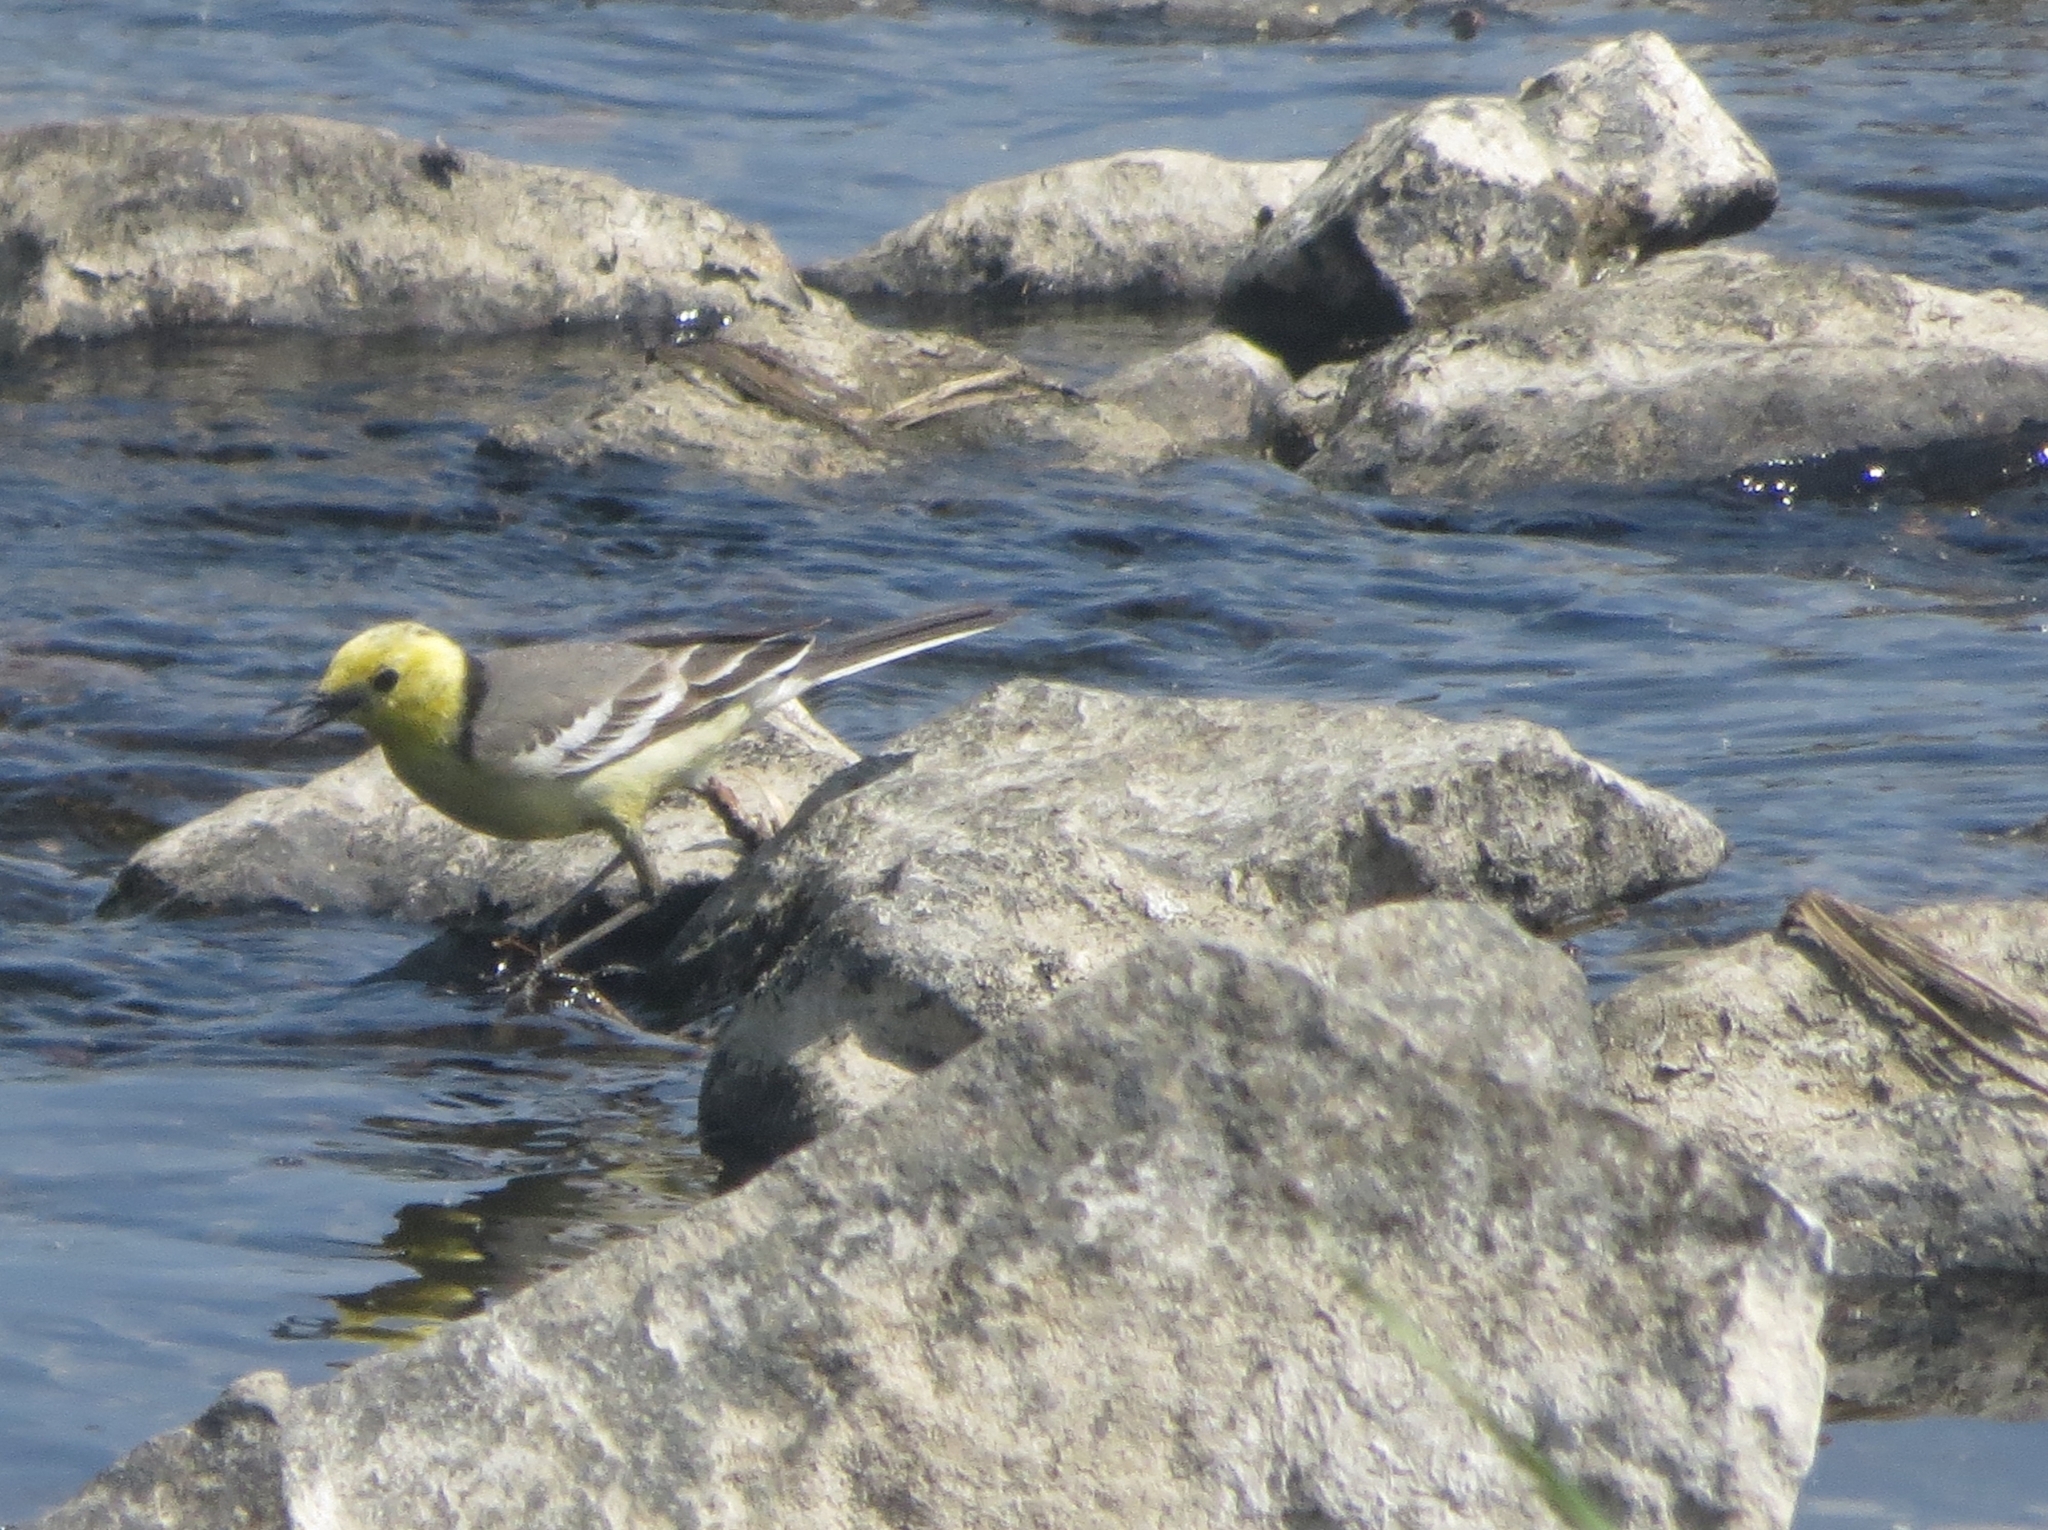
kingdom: Animalia
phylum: Chordata
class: Aves
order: Passeriformes
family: Motacillidae
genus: Motacilla
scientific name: Motacilla citreola
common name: Citrine wagtail
